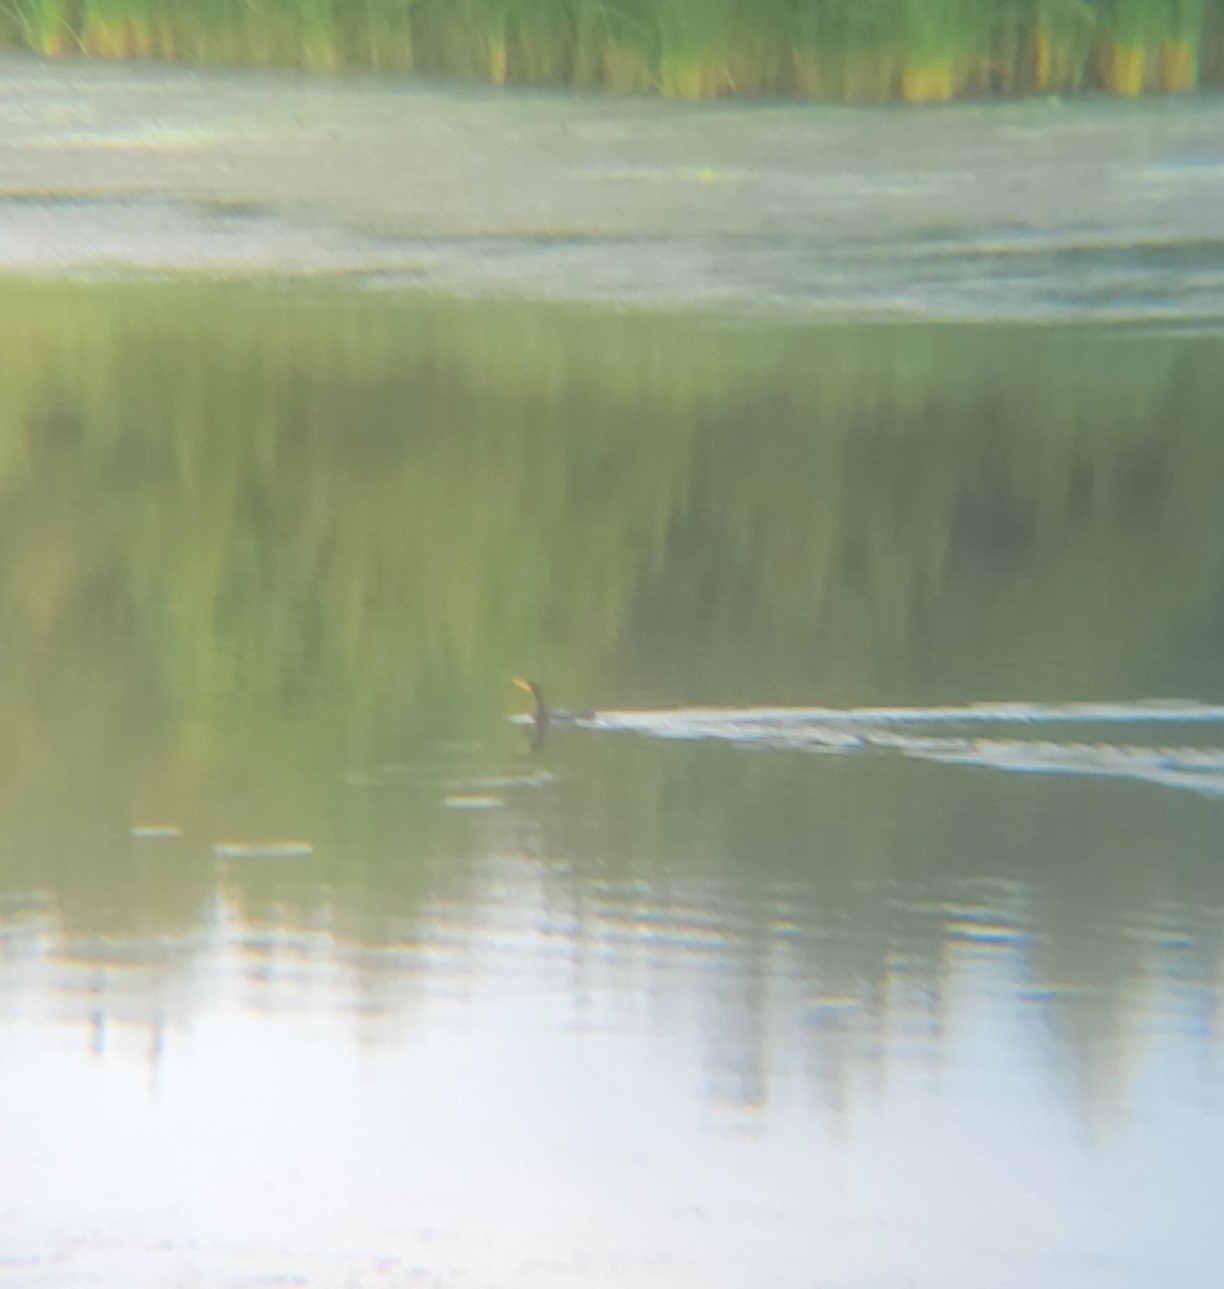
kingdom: Animalia
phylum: Chordata
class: Aves
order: Suliformes
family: Phalacrocoracidae
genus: Phalacrocorax
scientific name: Phalacrocorax auritus
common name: Double-crested cormorant
